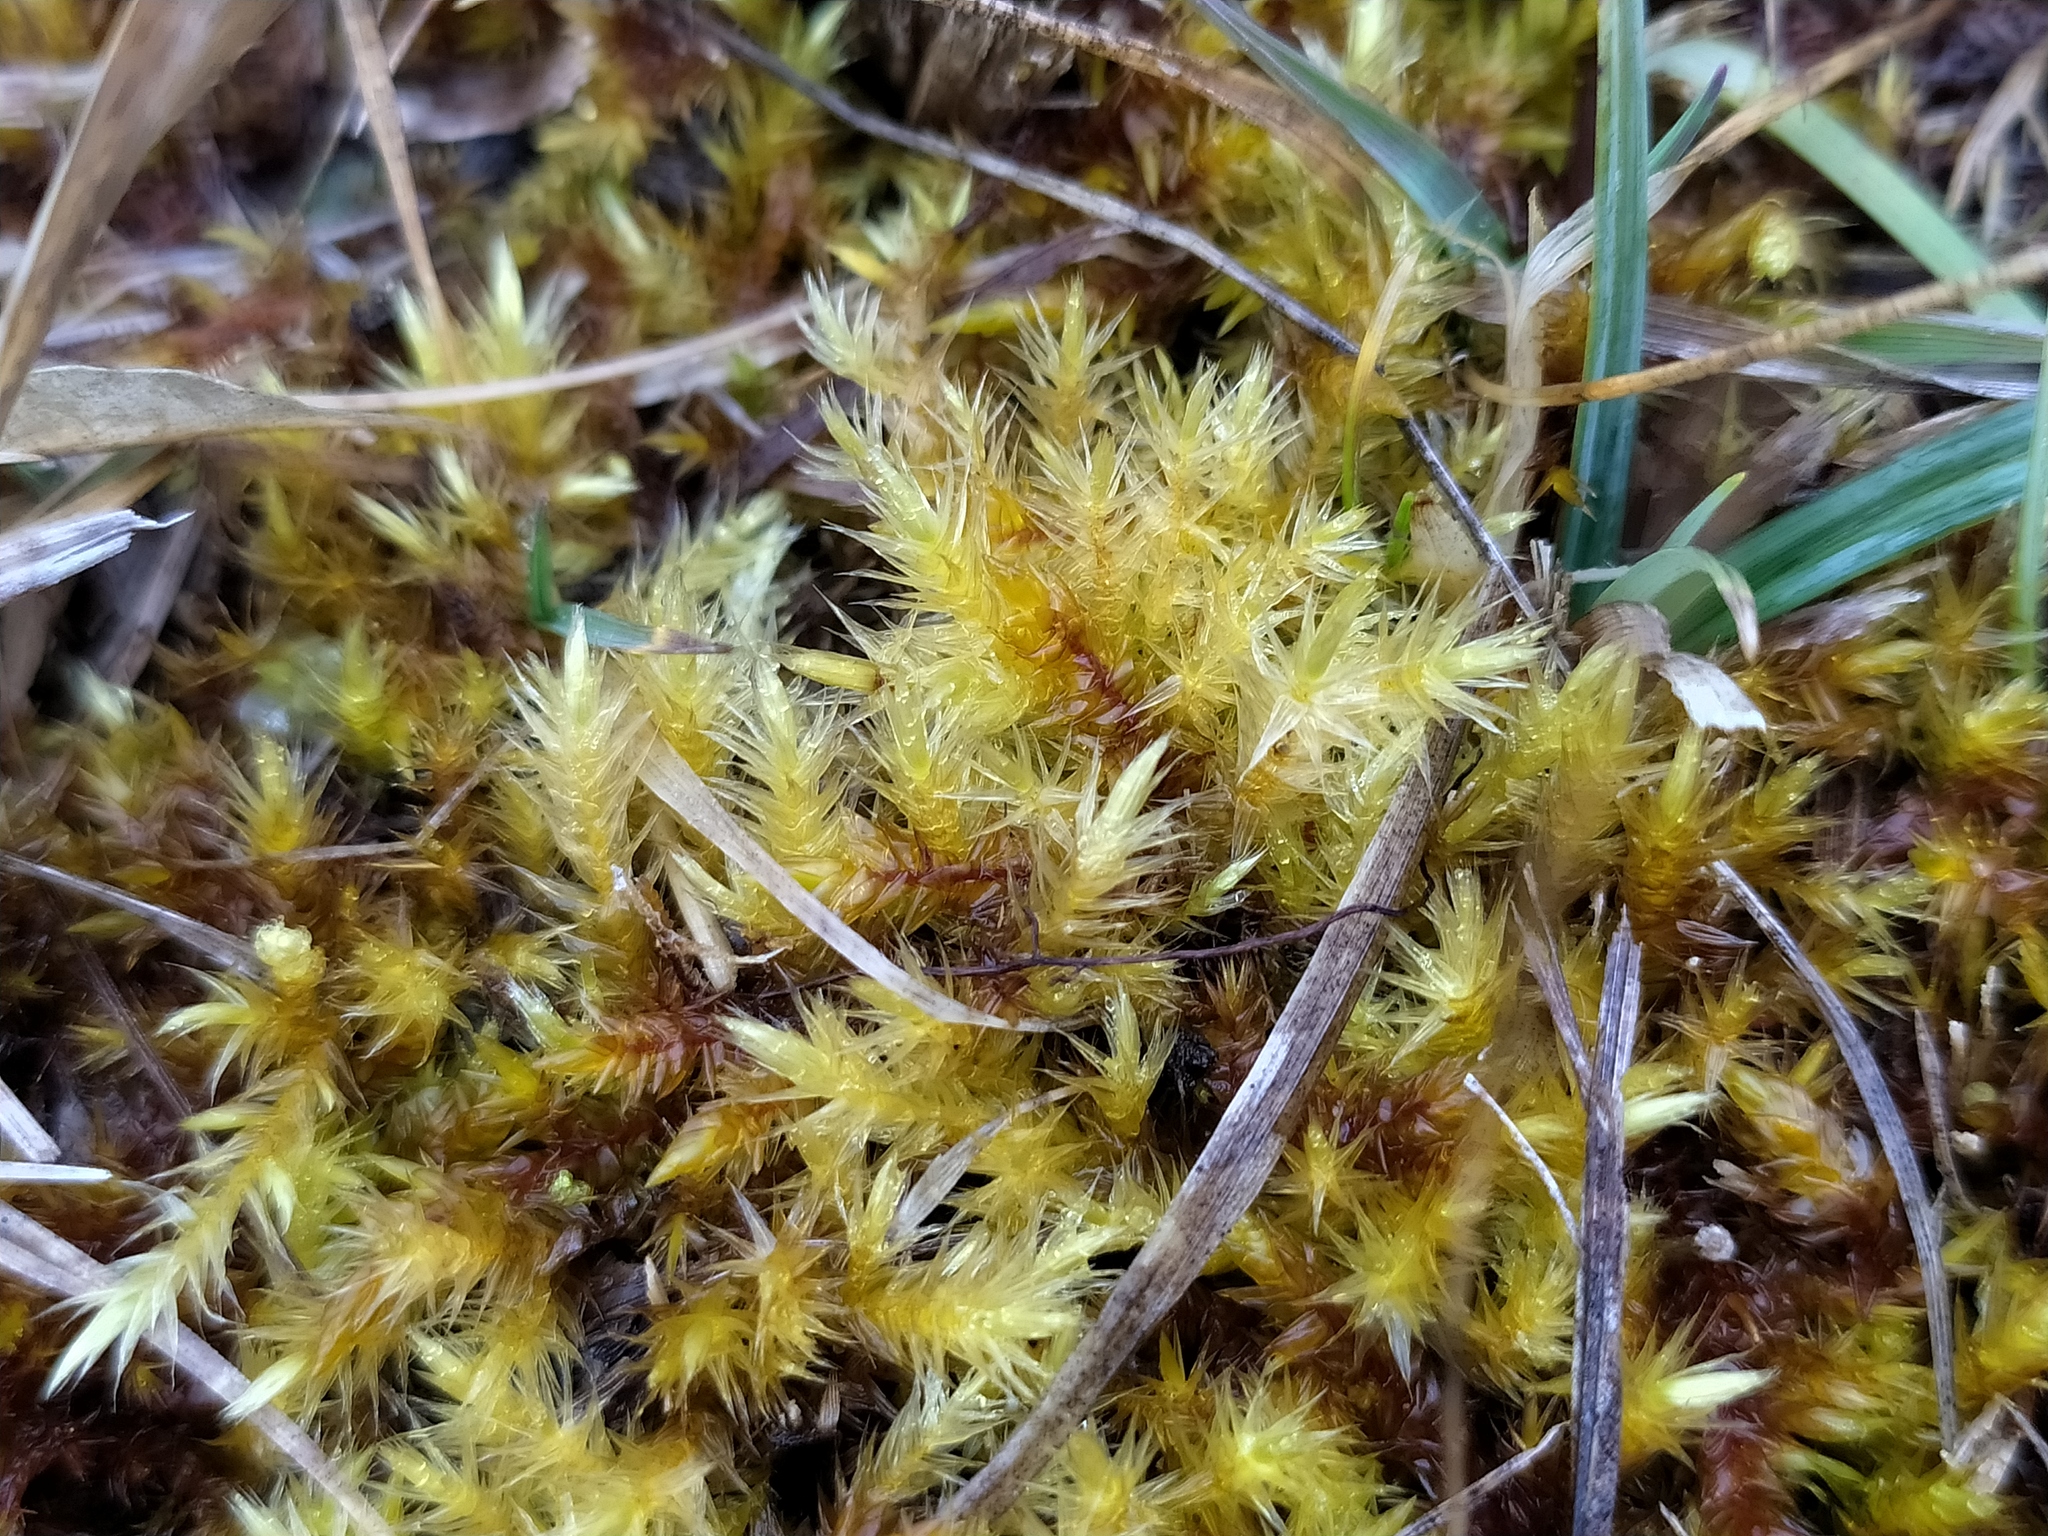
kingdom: Plantae
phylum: Bryophyta
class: Bryopsida
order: Hypnales
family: Amblystegiaceae
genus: Tomentypnum
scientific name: Tomentypnum nitens
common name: Golden fuzzy fen moss
